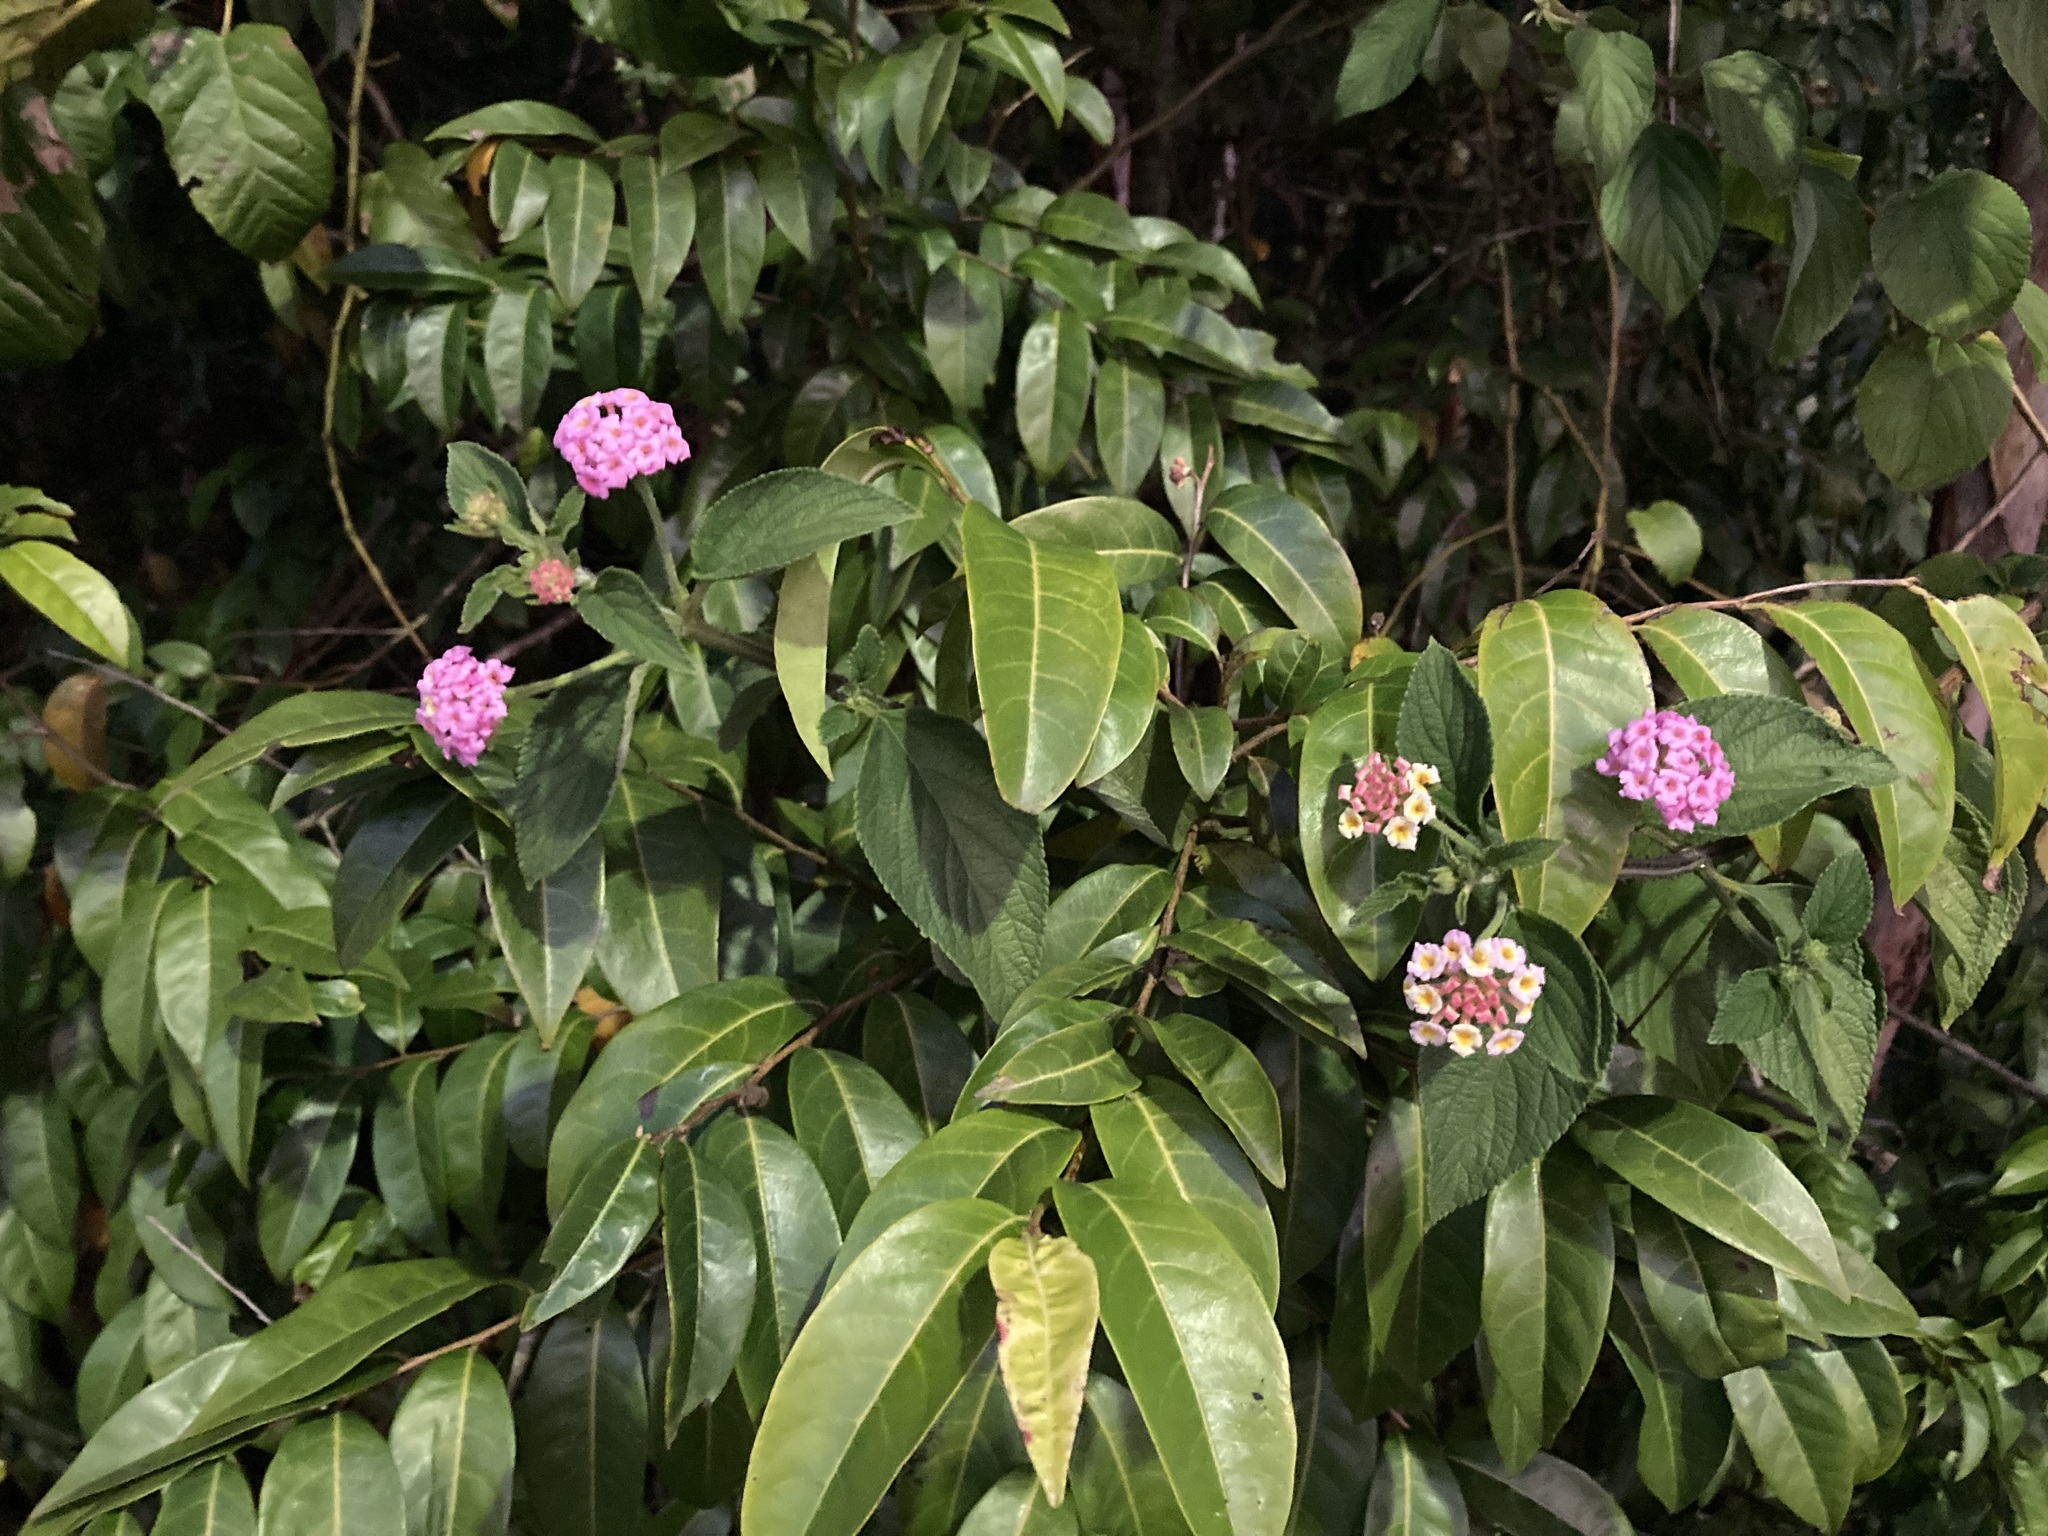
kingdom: Plantae
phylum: Tracheophyta
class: Magnoliopsida
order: Lamiales
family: Verbenaceae
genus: Lantana
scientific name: Lantana camara
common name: Lantana
